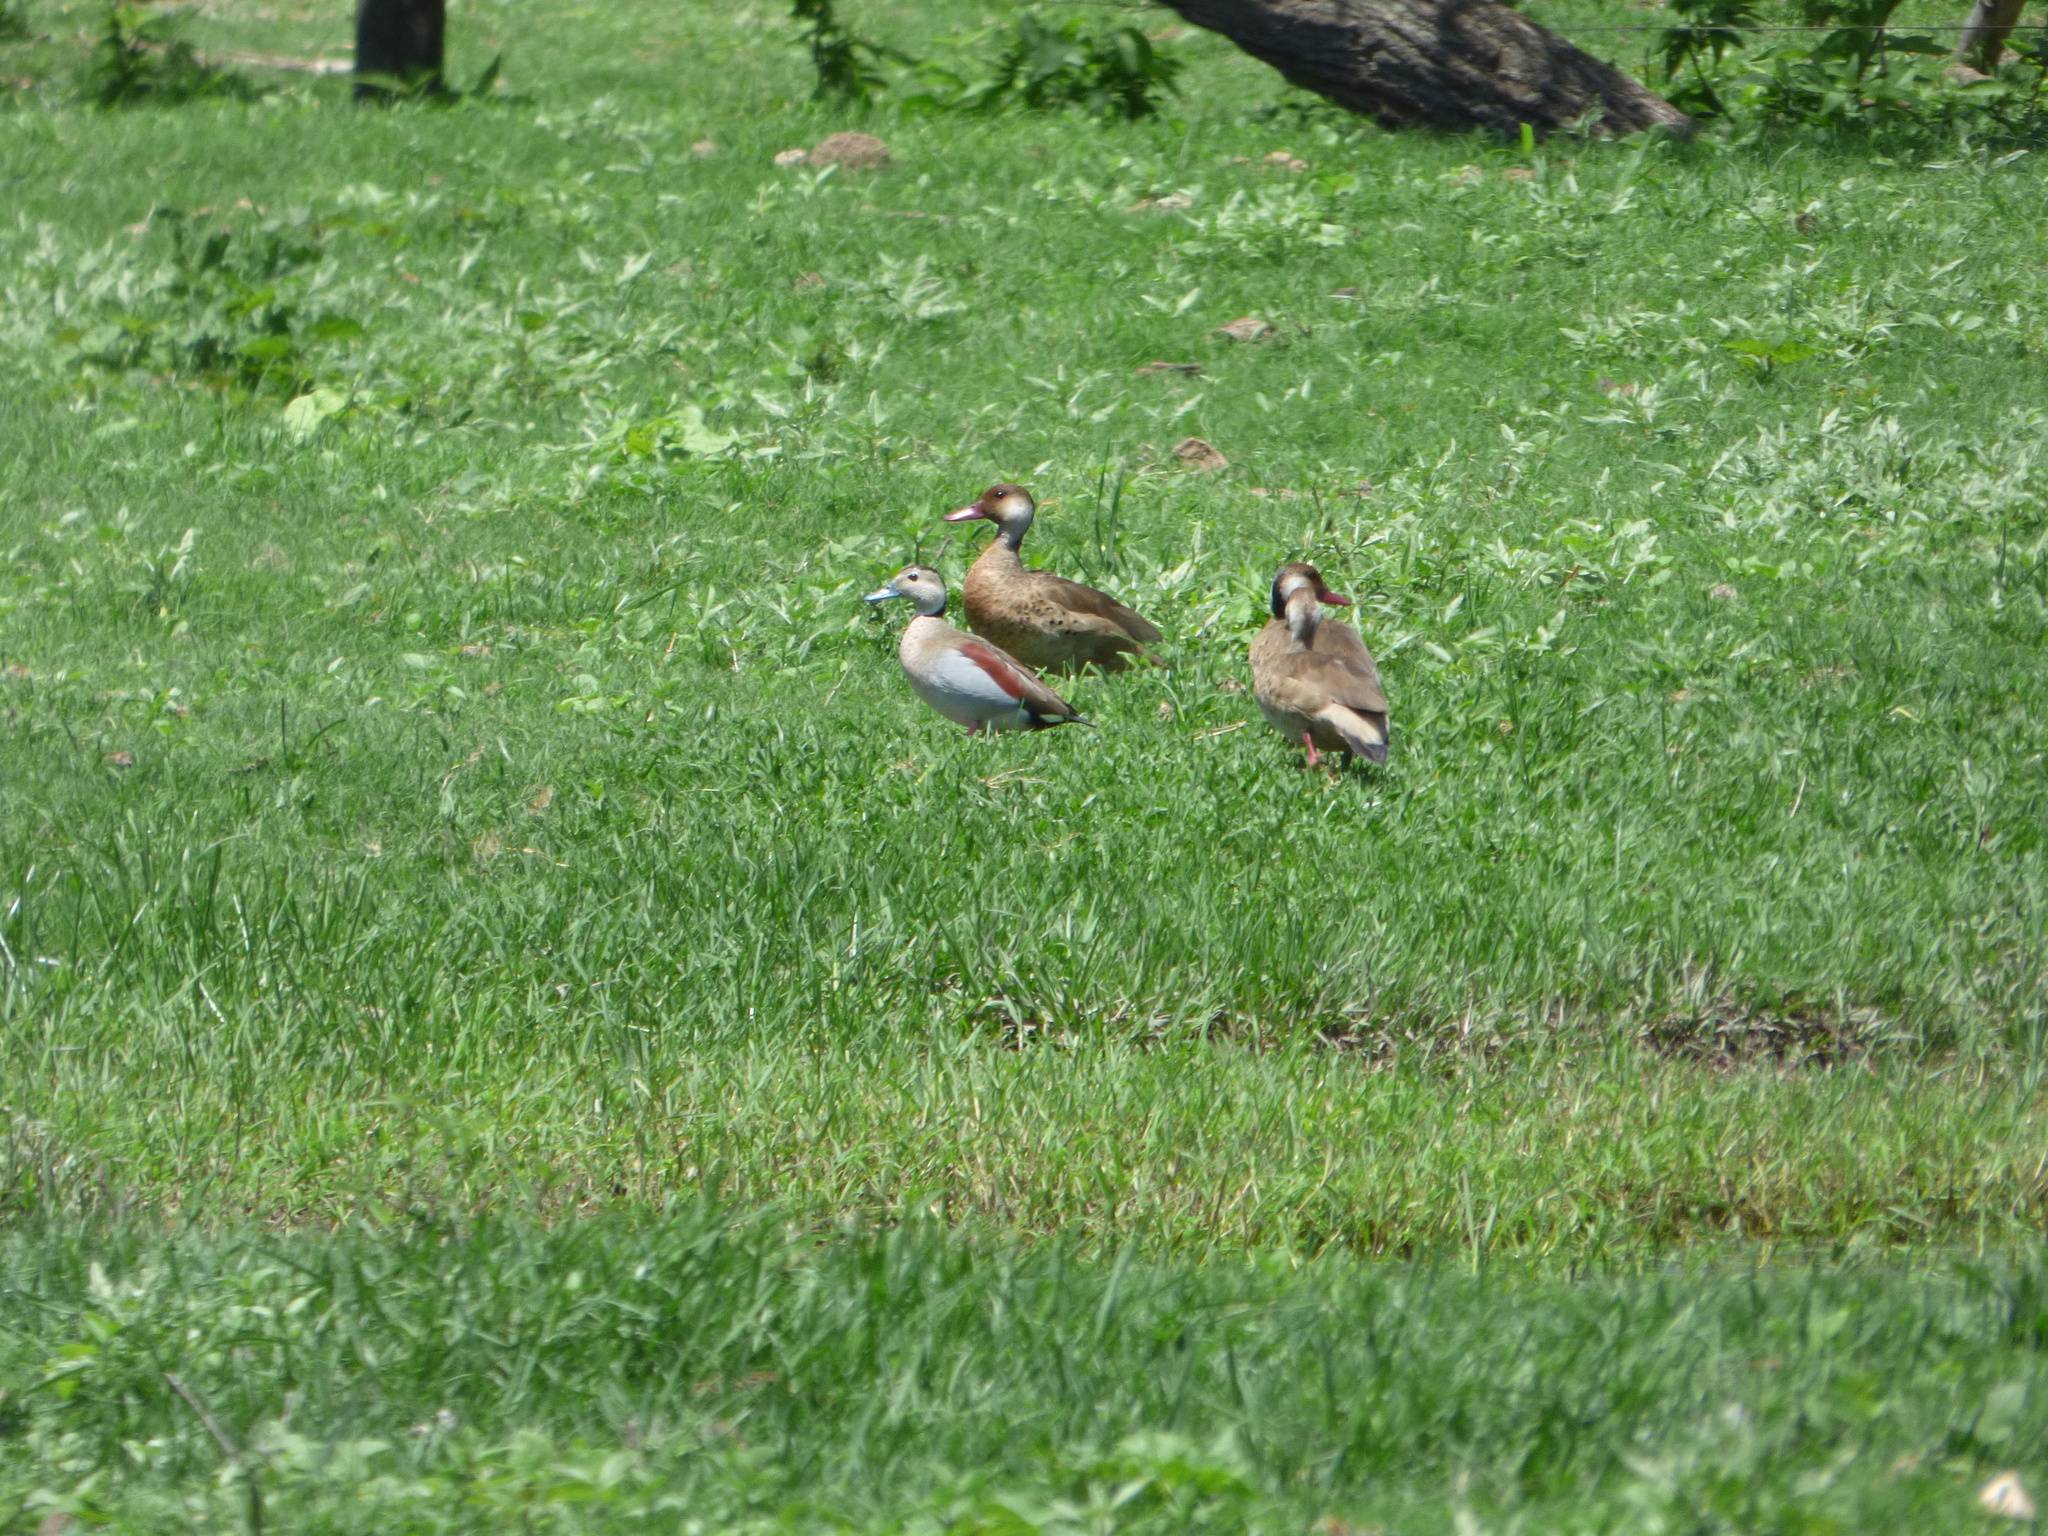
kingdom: Animalia
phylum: Chordata
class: Aves
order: Anseriformes
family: Anatidae
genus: Amazonetta
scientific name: Amazonetta brasiliensis
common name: Brazilian teal
